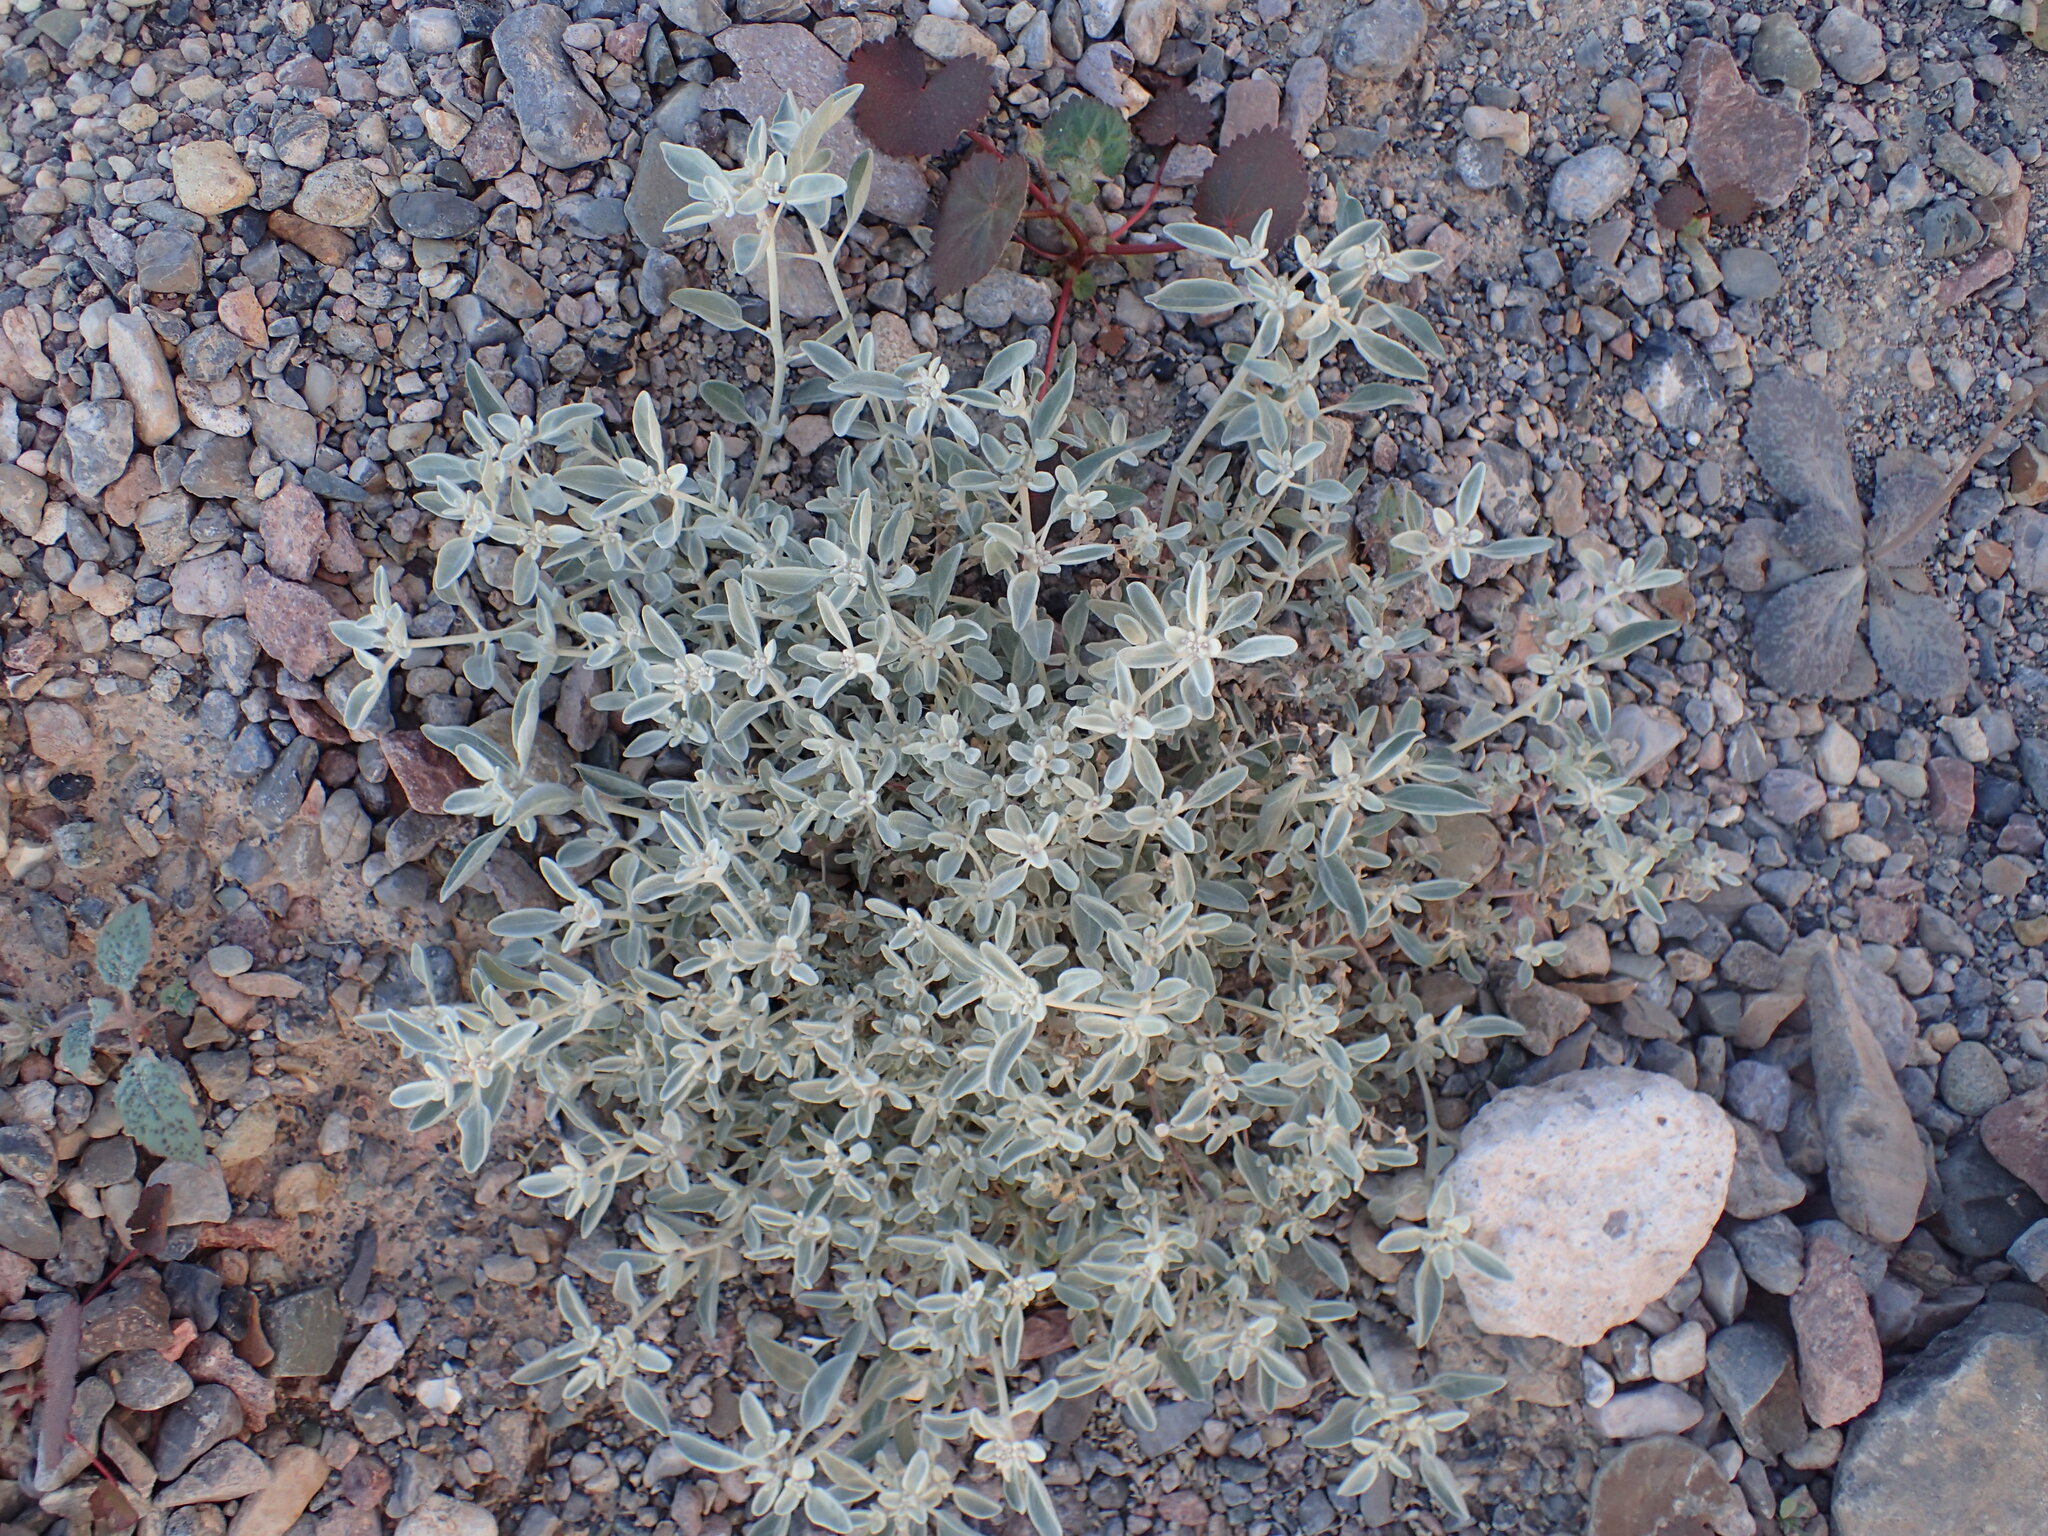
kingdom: Plantae
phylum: Tracheophyta
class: Magnoliopsida
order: Caryophyllales
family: Amaranthaceae
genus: Tidestromia
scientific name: Tidestromia suffruticosa
